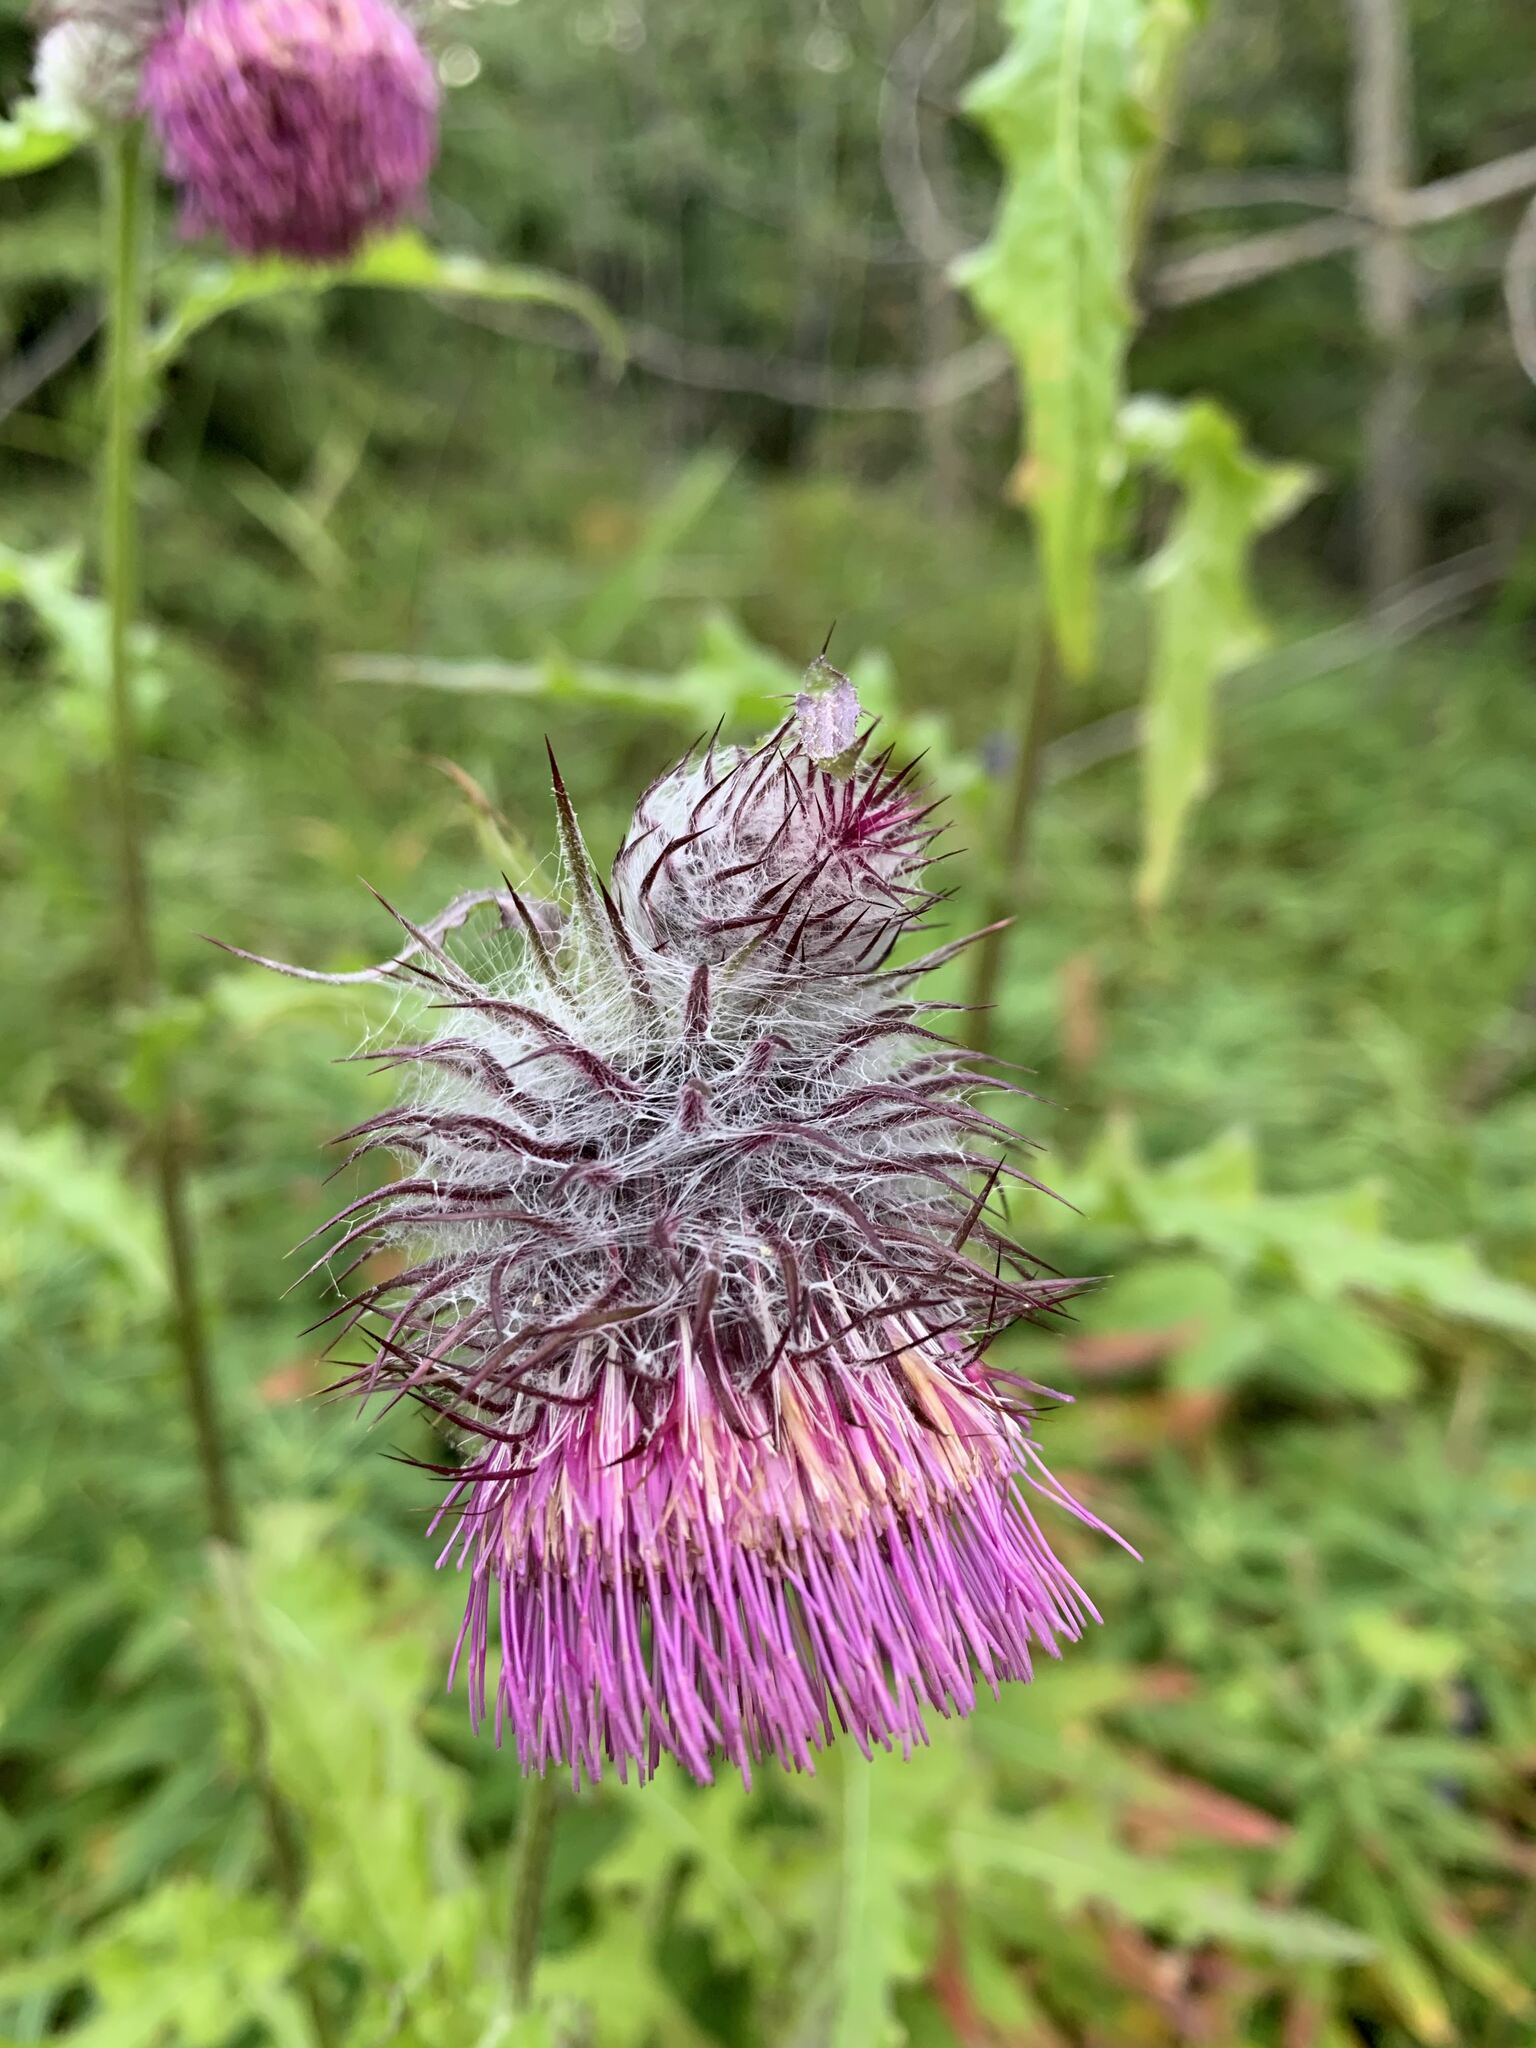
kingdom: Plantae
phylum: Tracheophyta
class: Magnoliopsida
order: Asterales
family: Asteraceae
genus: Cirsium
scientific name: Cirsium edule
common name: Indian thistle
